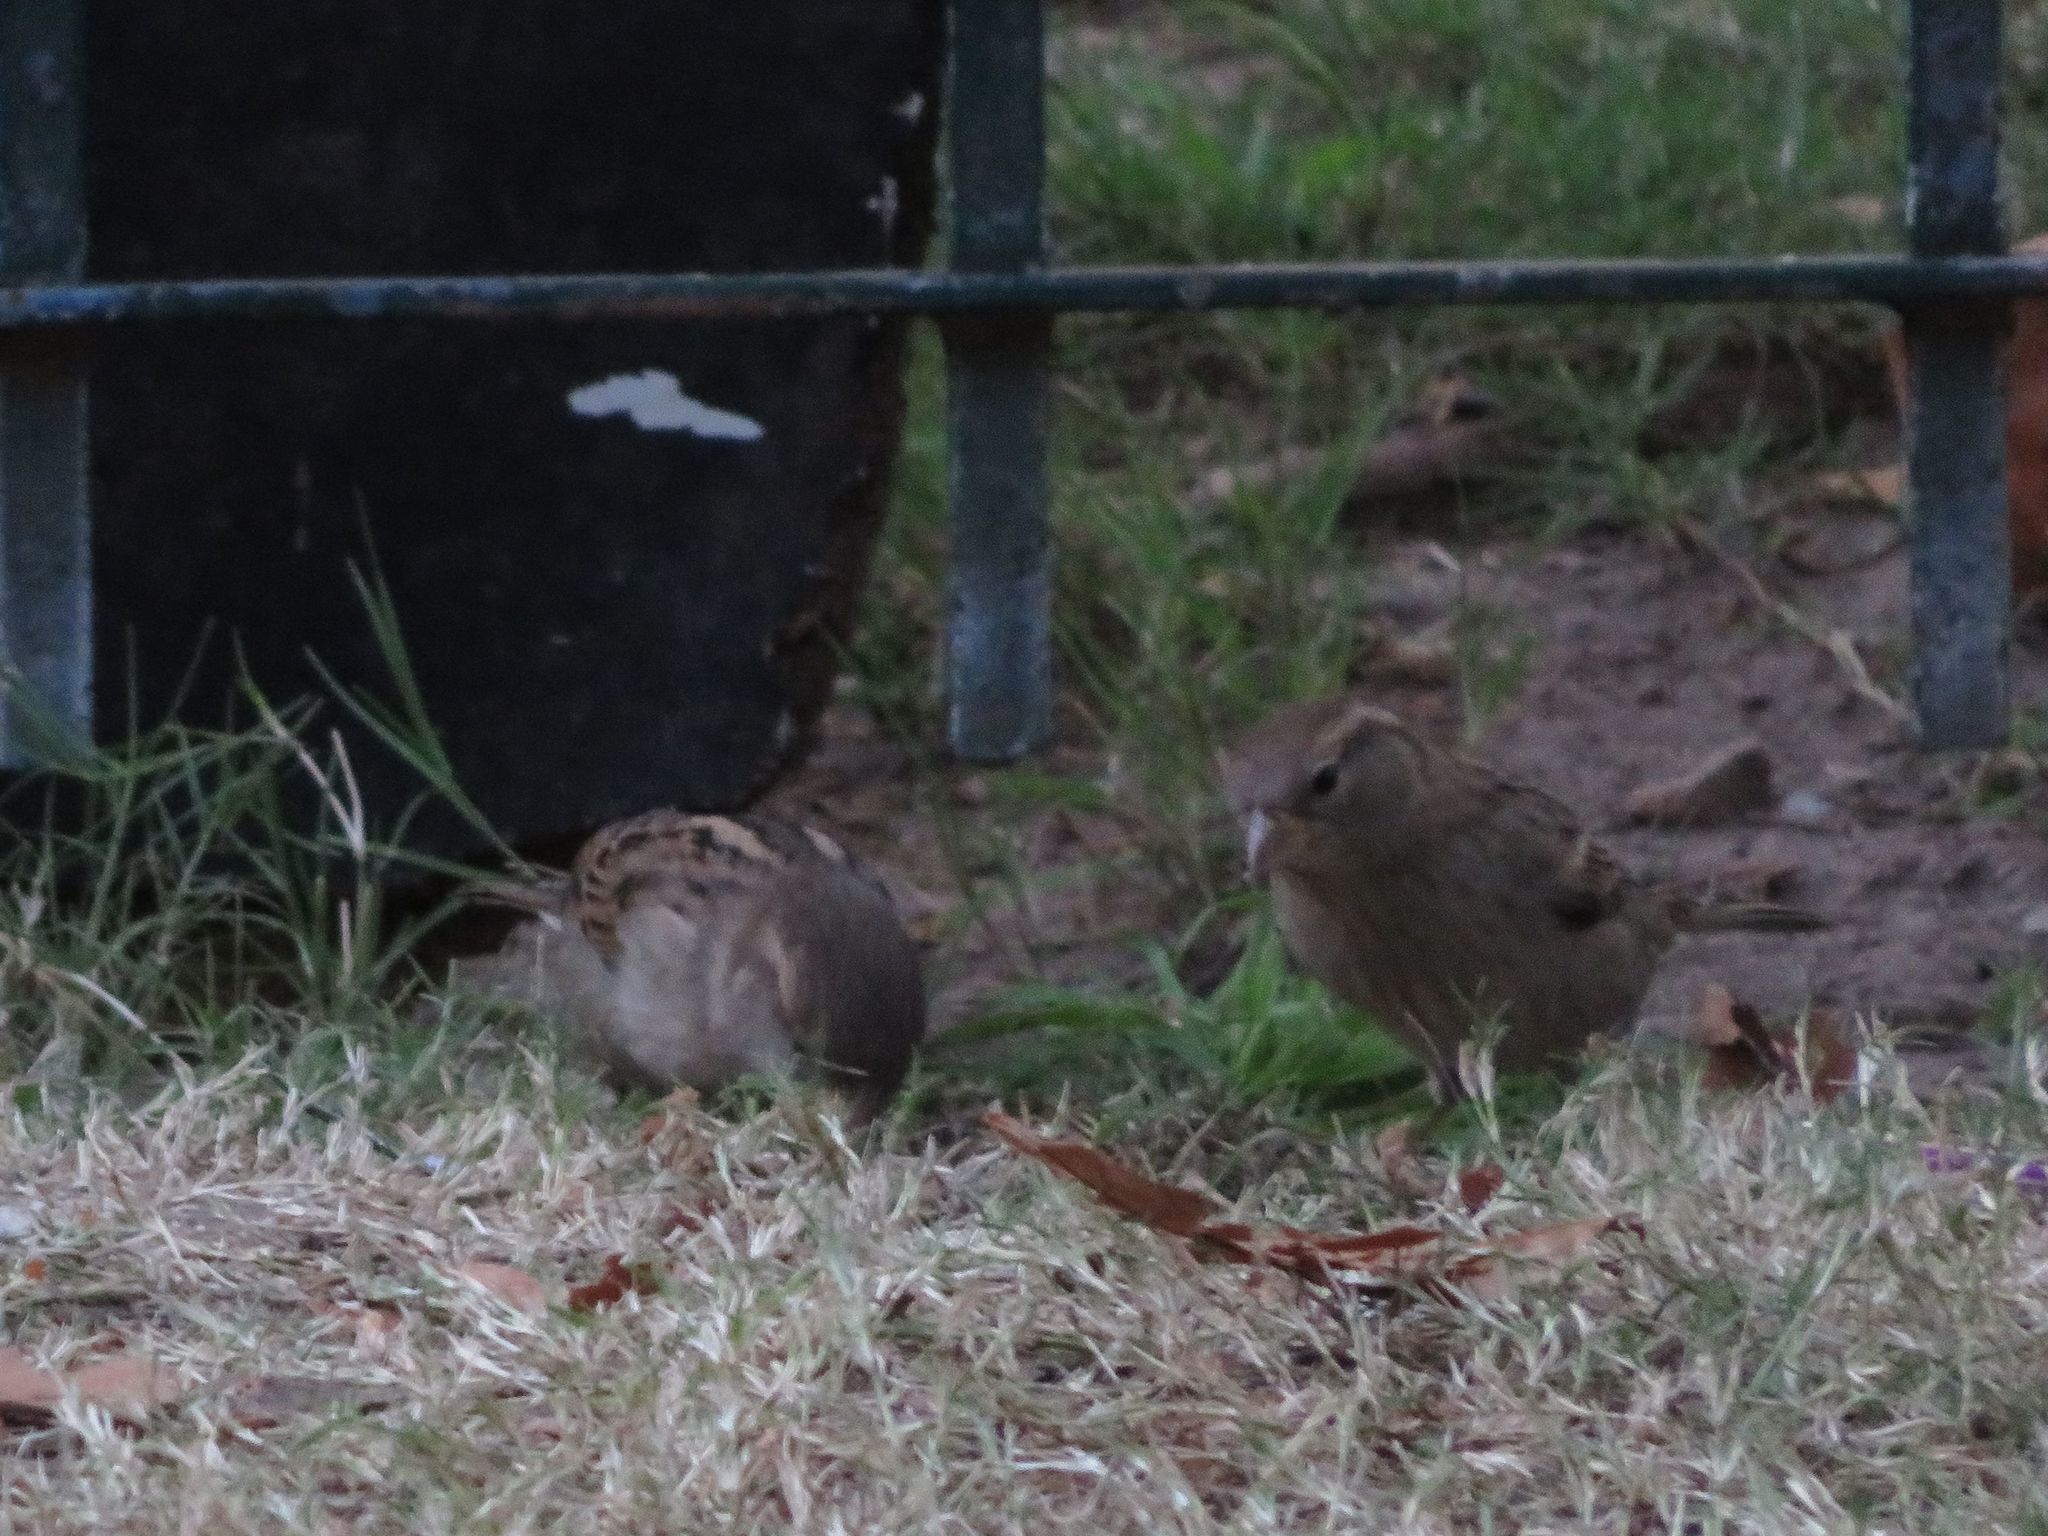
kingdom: Animalia
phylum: Chordata
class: Aves
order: Passeriformes
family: Passeridae
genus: Passer
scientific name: Passer domesticus
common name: House sparrow
